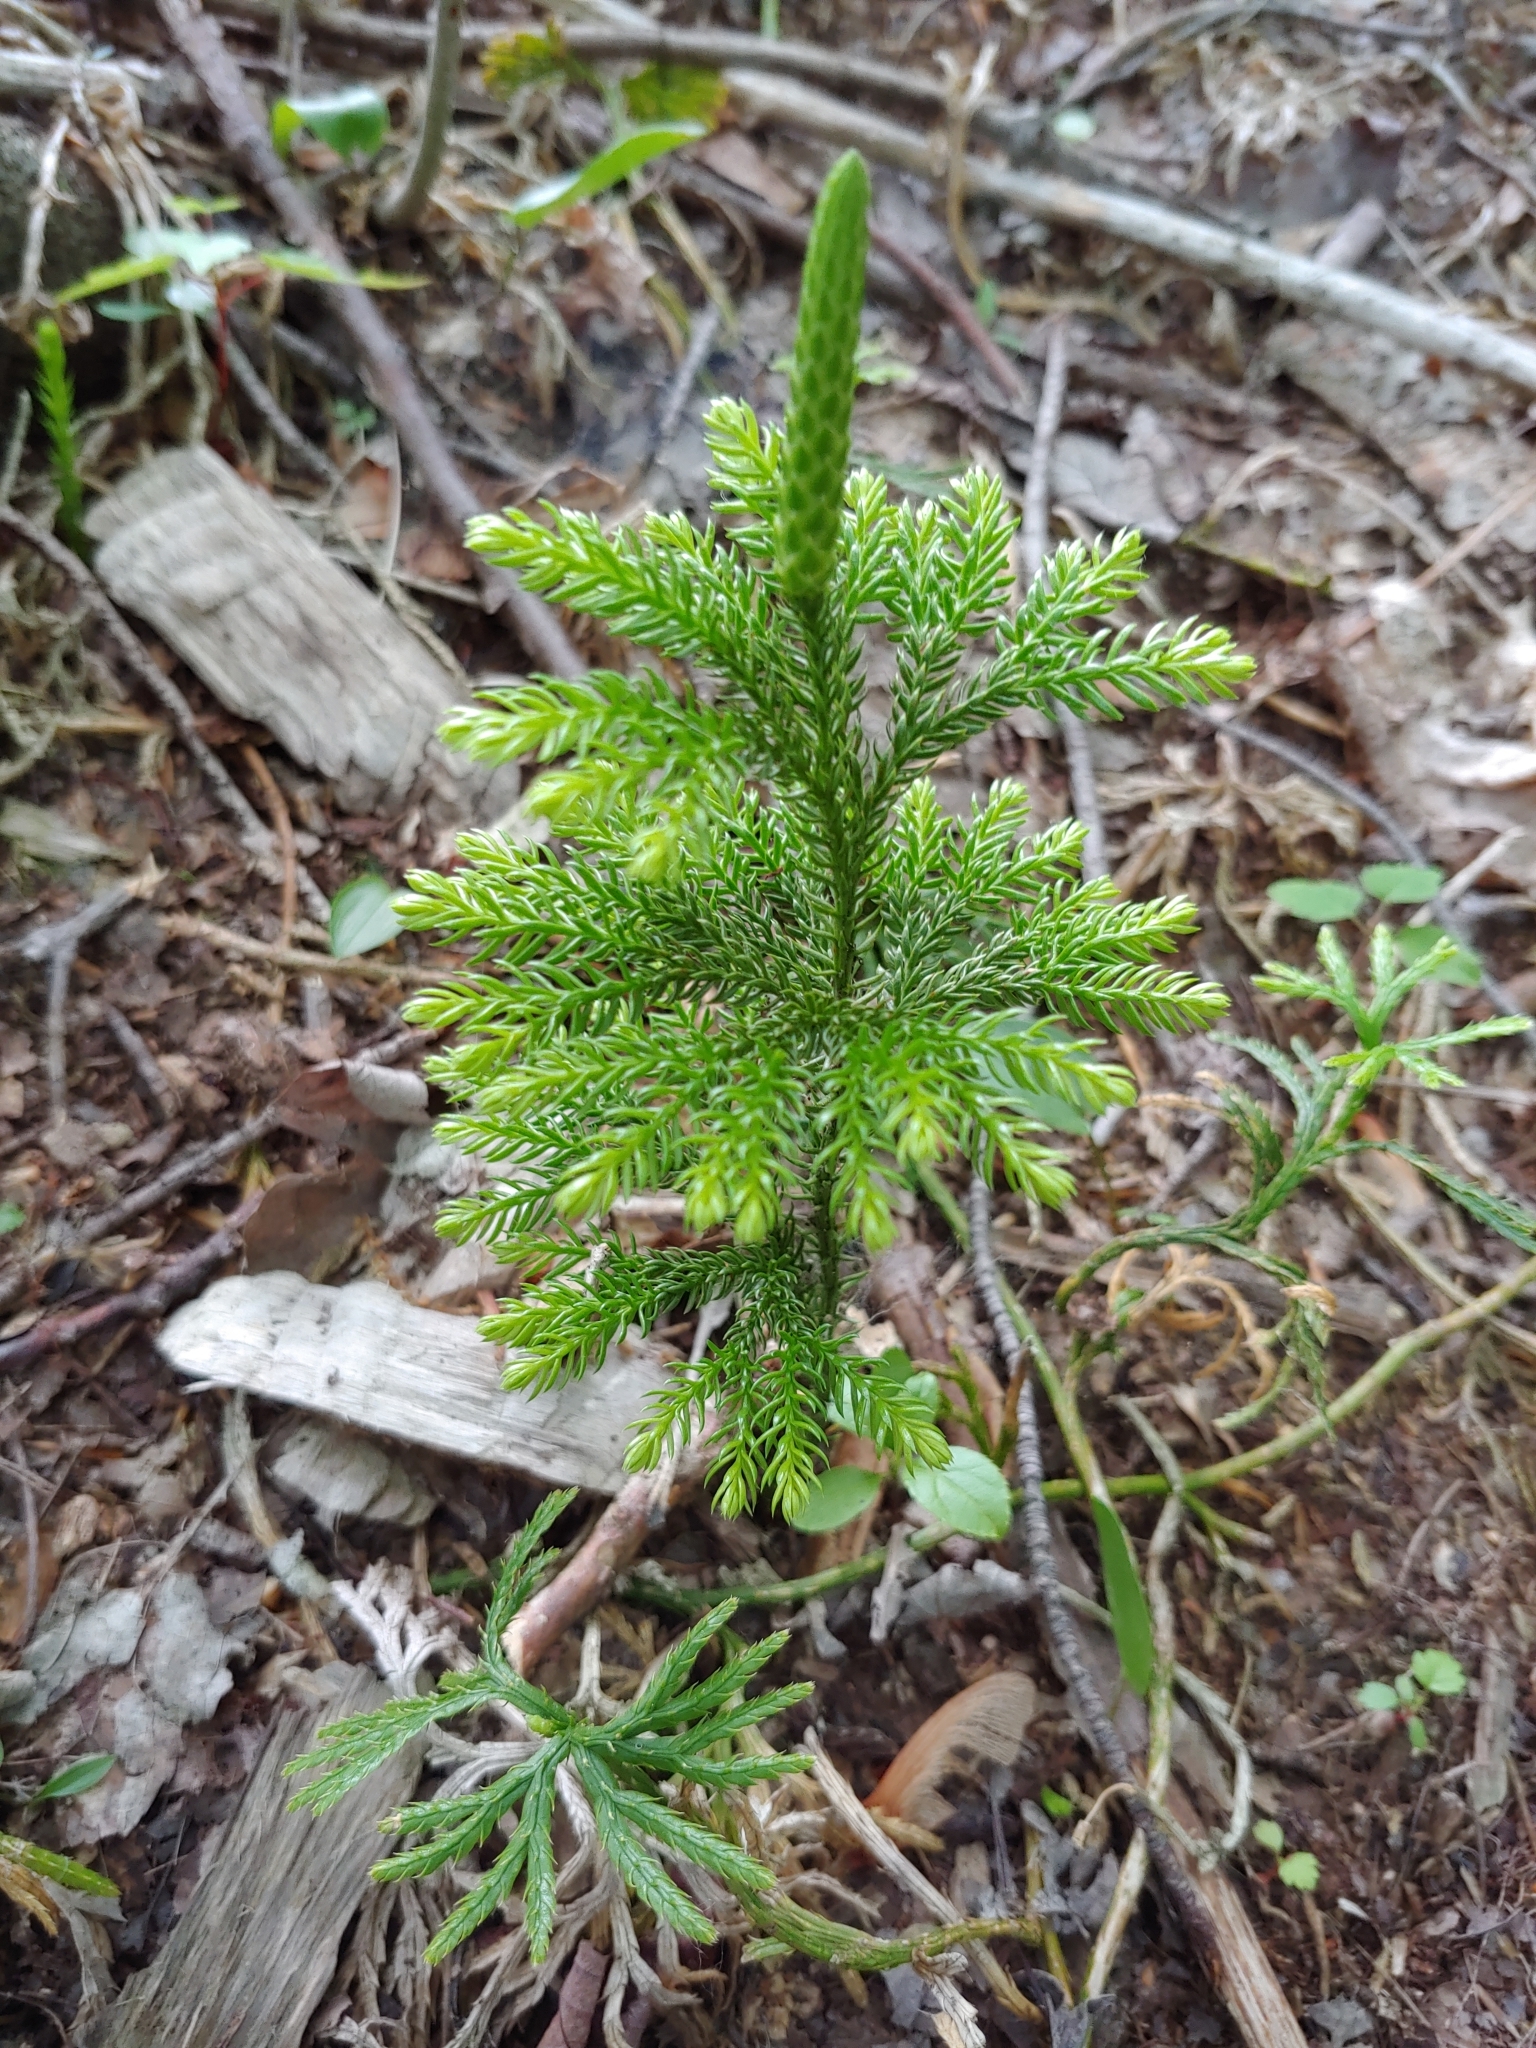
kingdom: Plantae
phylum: Tracheophyta
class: Lycopodiopsida
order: Lycopodiales
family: Lycopodiaceae
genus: Dendrolycopodium
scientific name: Dendrolycopodium dendroideum
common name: Northern tree-clubmoss
